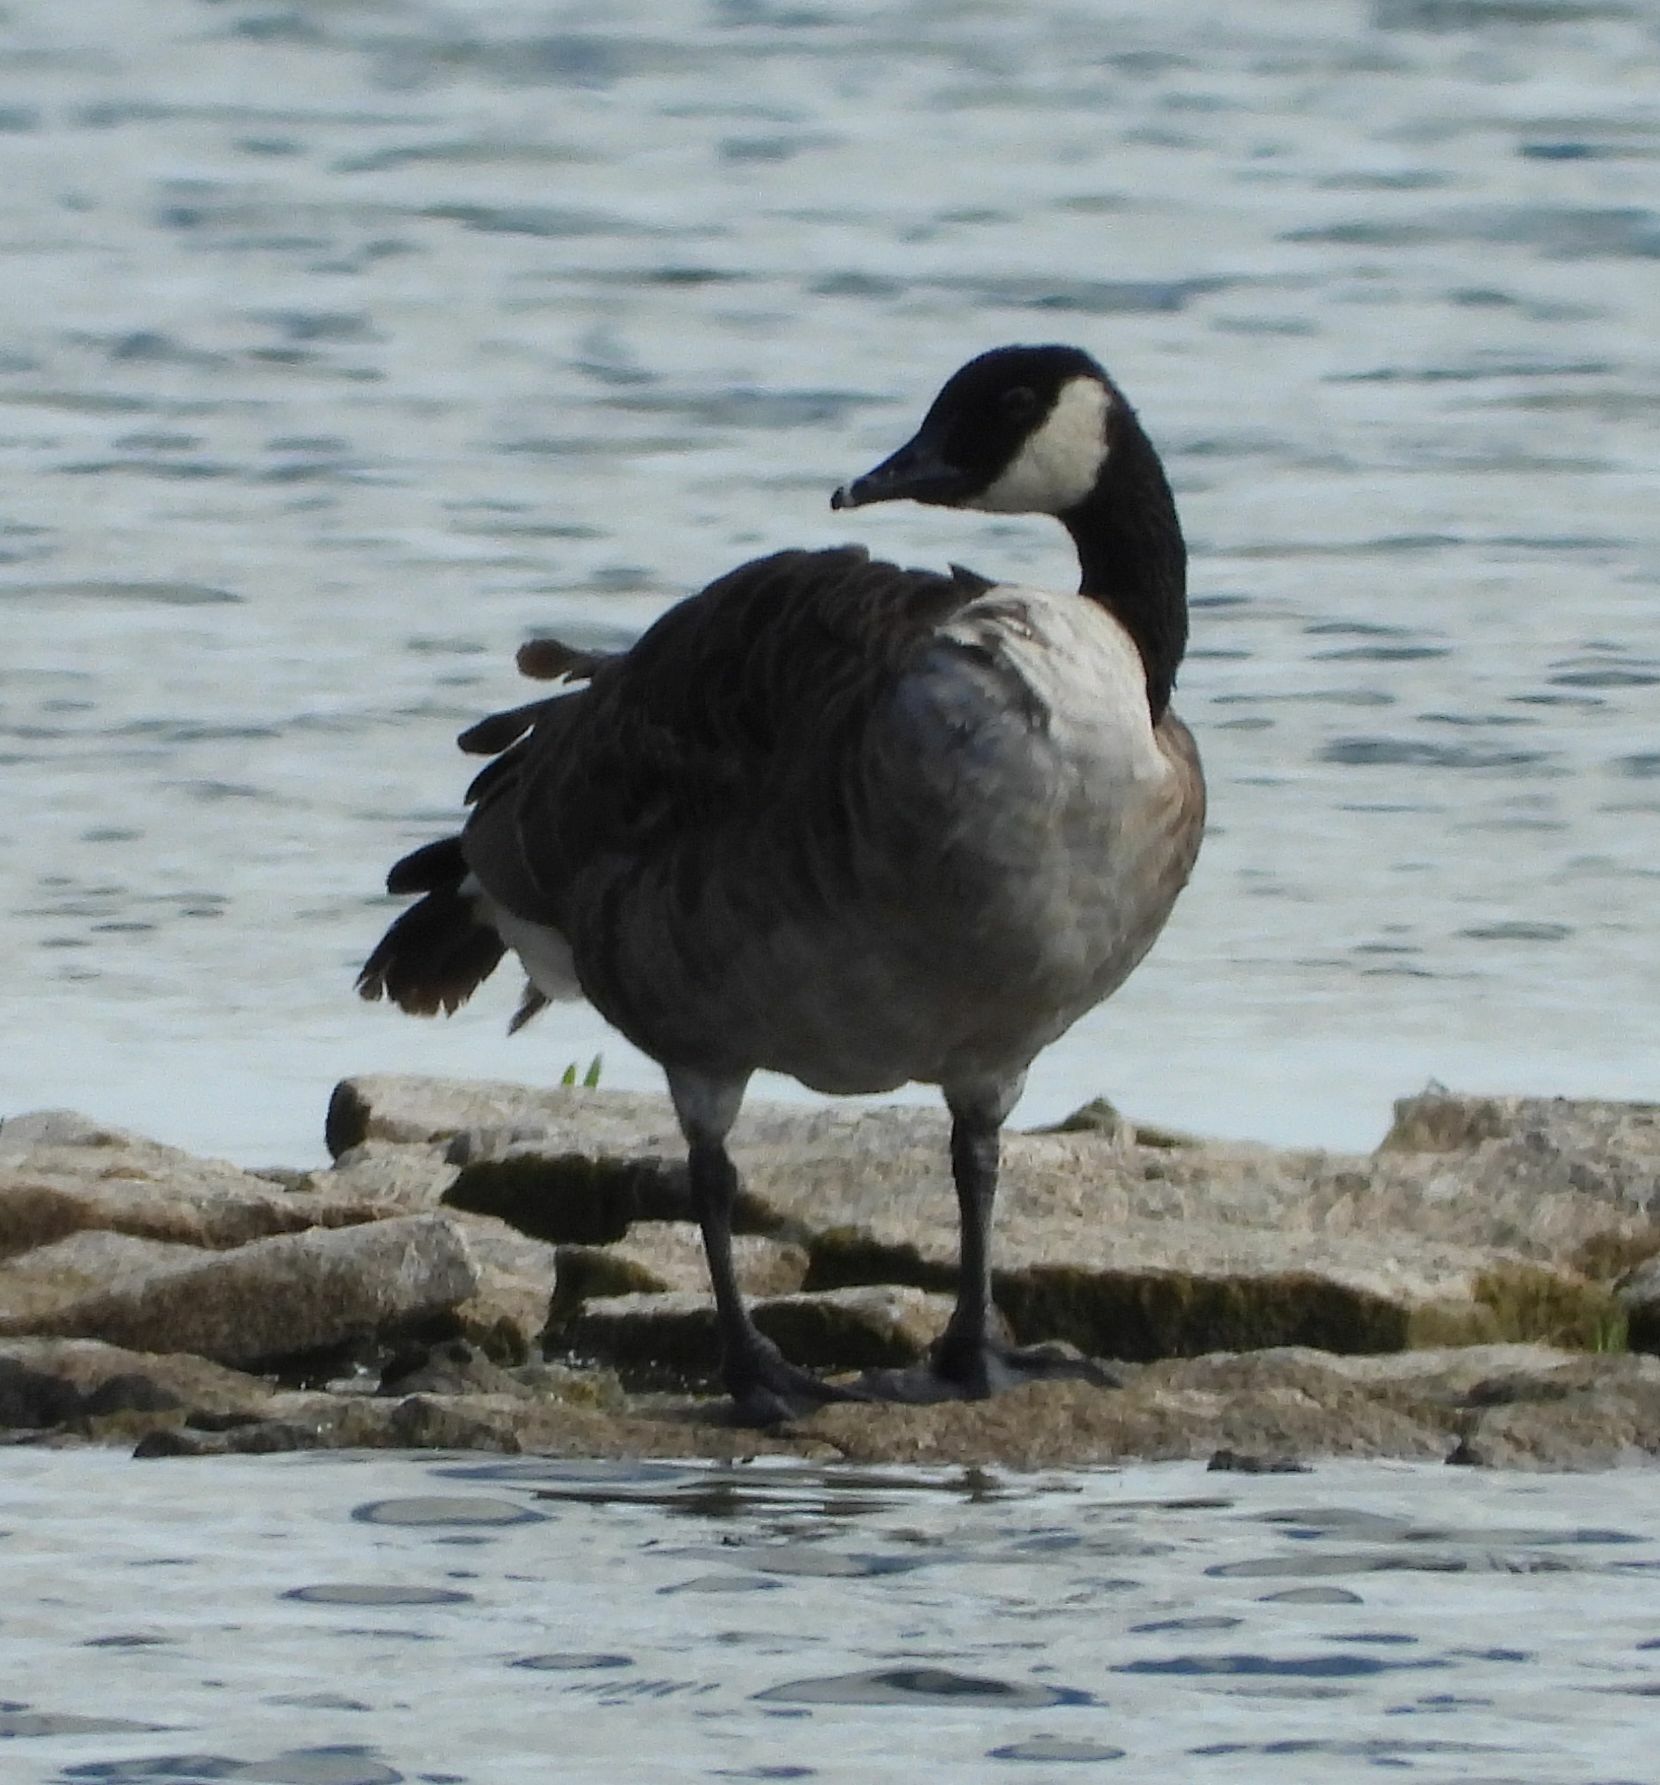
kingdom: Animalia
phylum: Chordata
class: Aves
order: Anseriformes
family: Anatidae
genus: Branta
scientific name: Branta canadensis
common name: Canada goose
